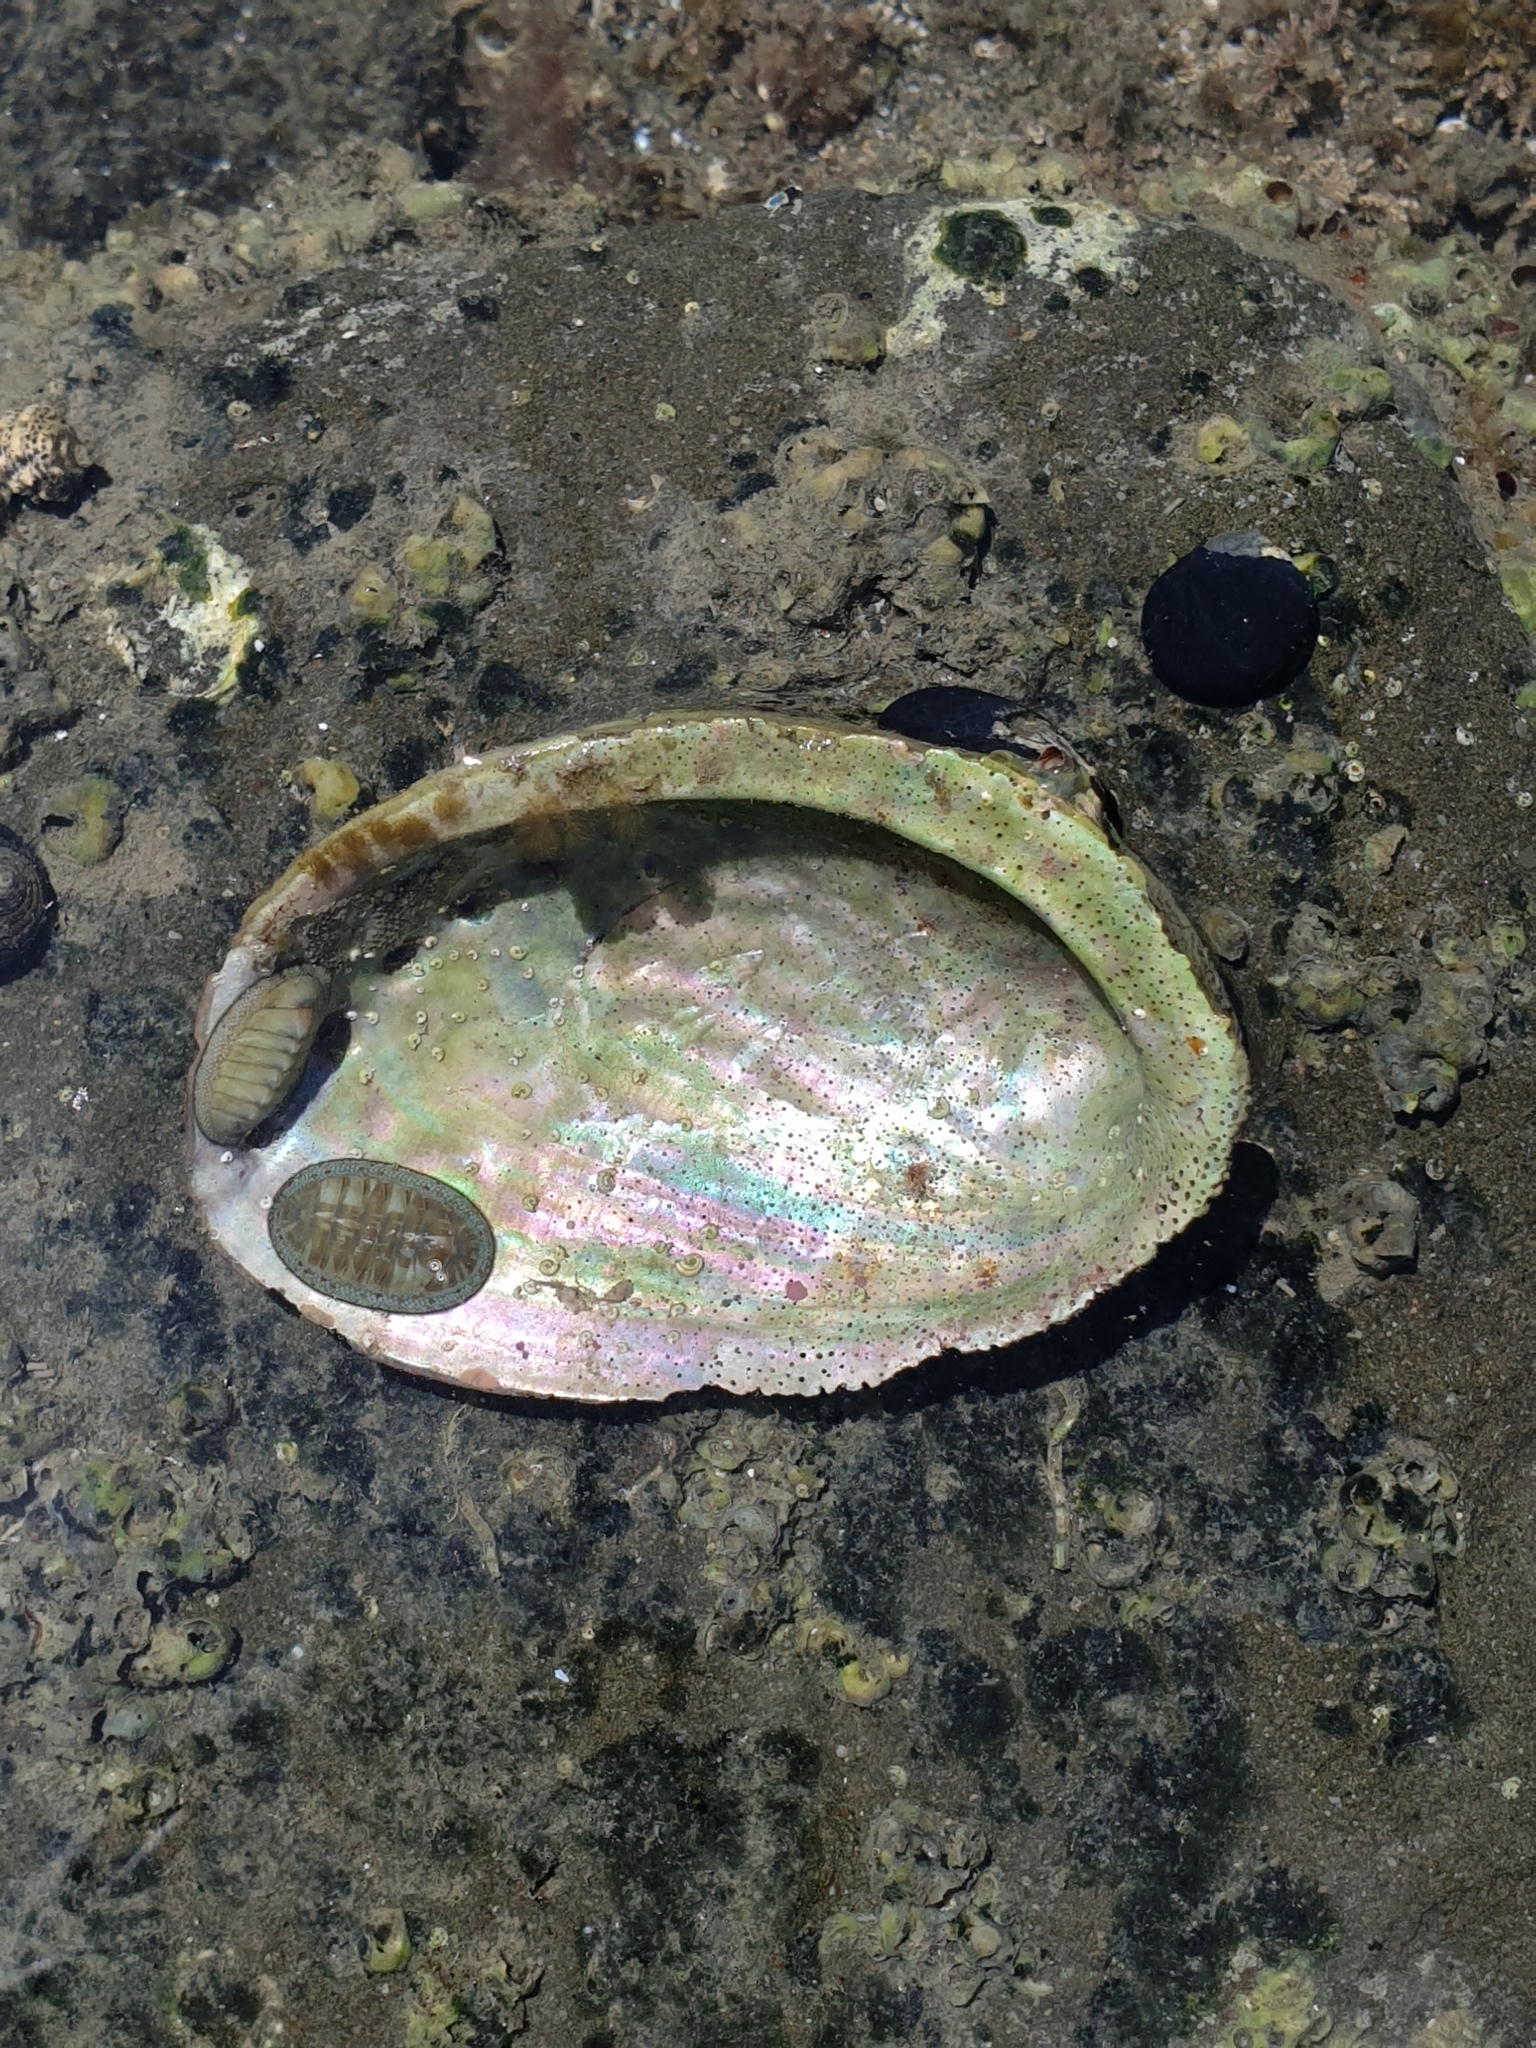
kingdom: Animalia
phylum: Mollusca
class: Gastropoda
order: Lepetellida
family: Haliotidae
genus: Haliotis
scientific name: Haliotis iris
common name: Abalone
